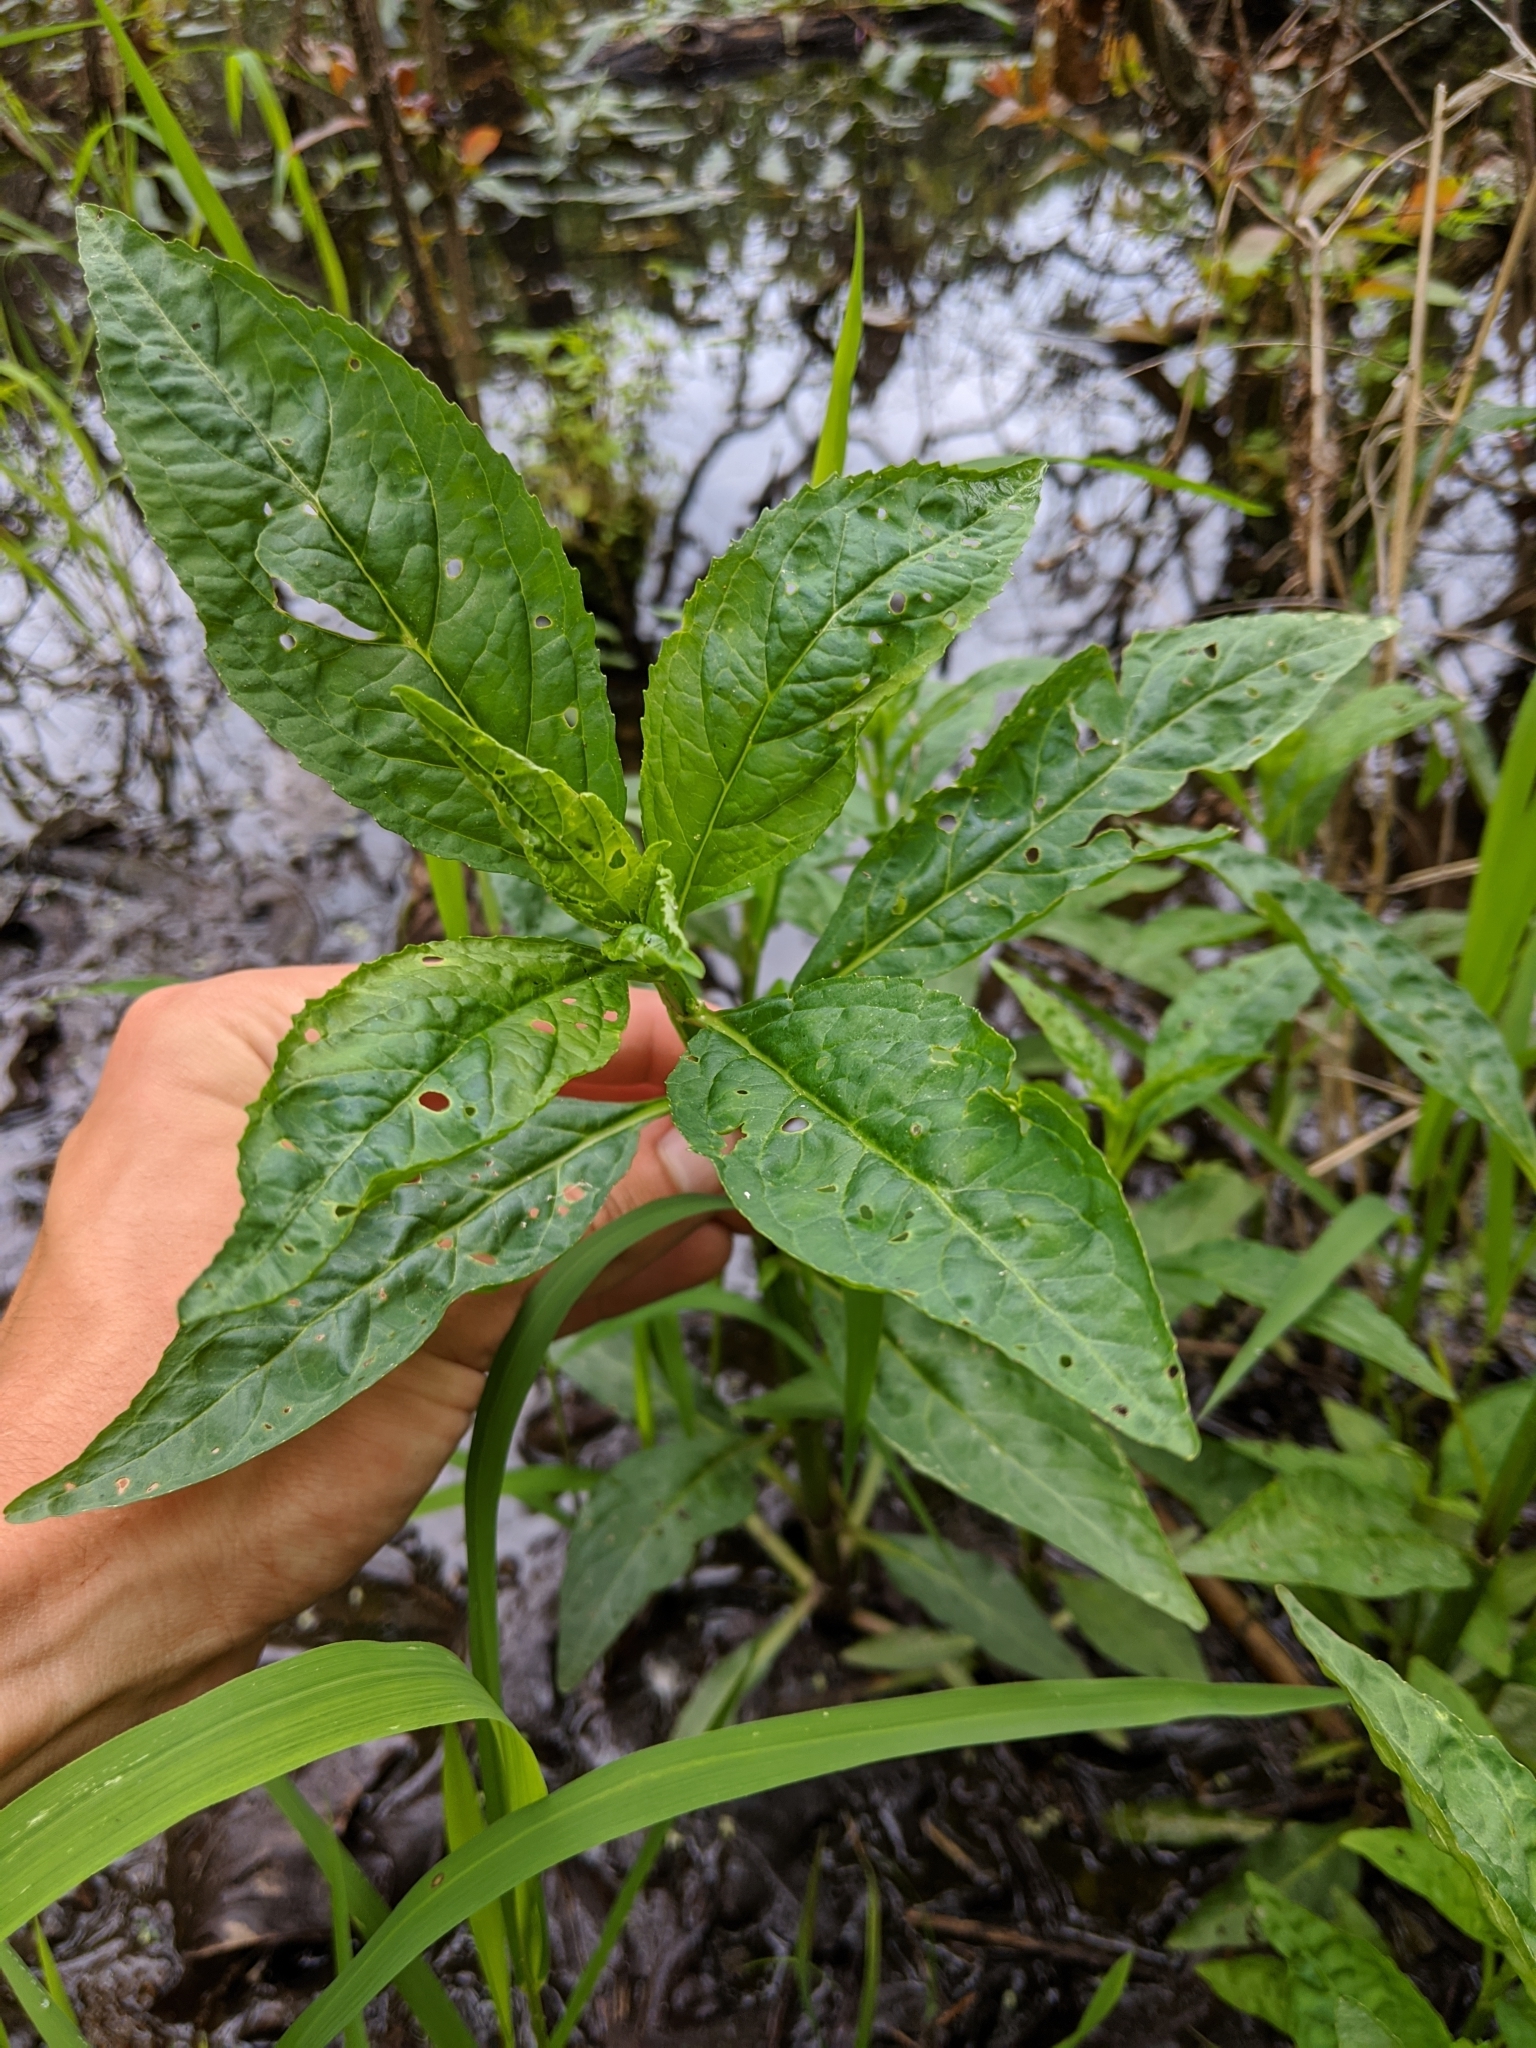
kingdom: Plantae
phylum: Tracheophyta
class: Magnoliopsida
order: Lamiales
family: Phrymaceae
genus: Mimulus
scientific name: Mimulus alatus
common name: Sharp-wing monkey-flower
